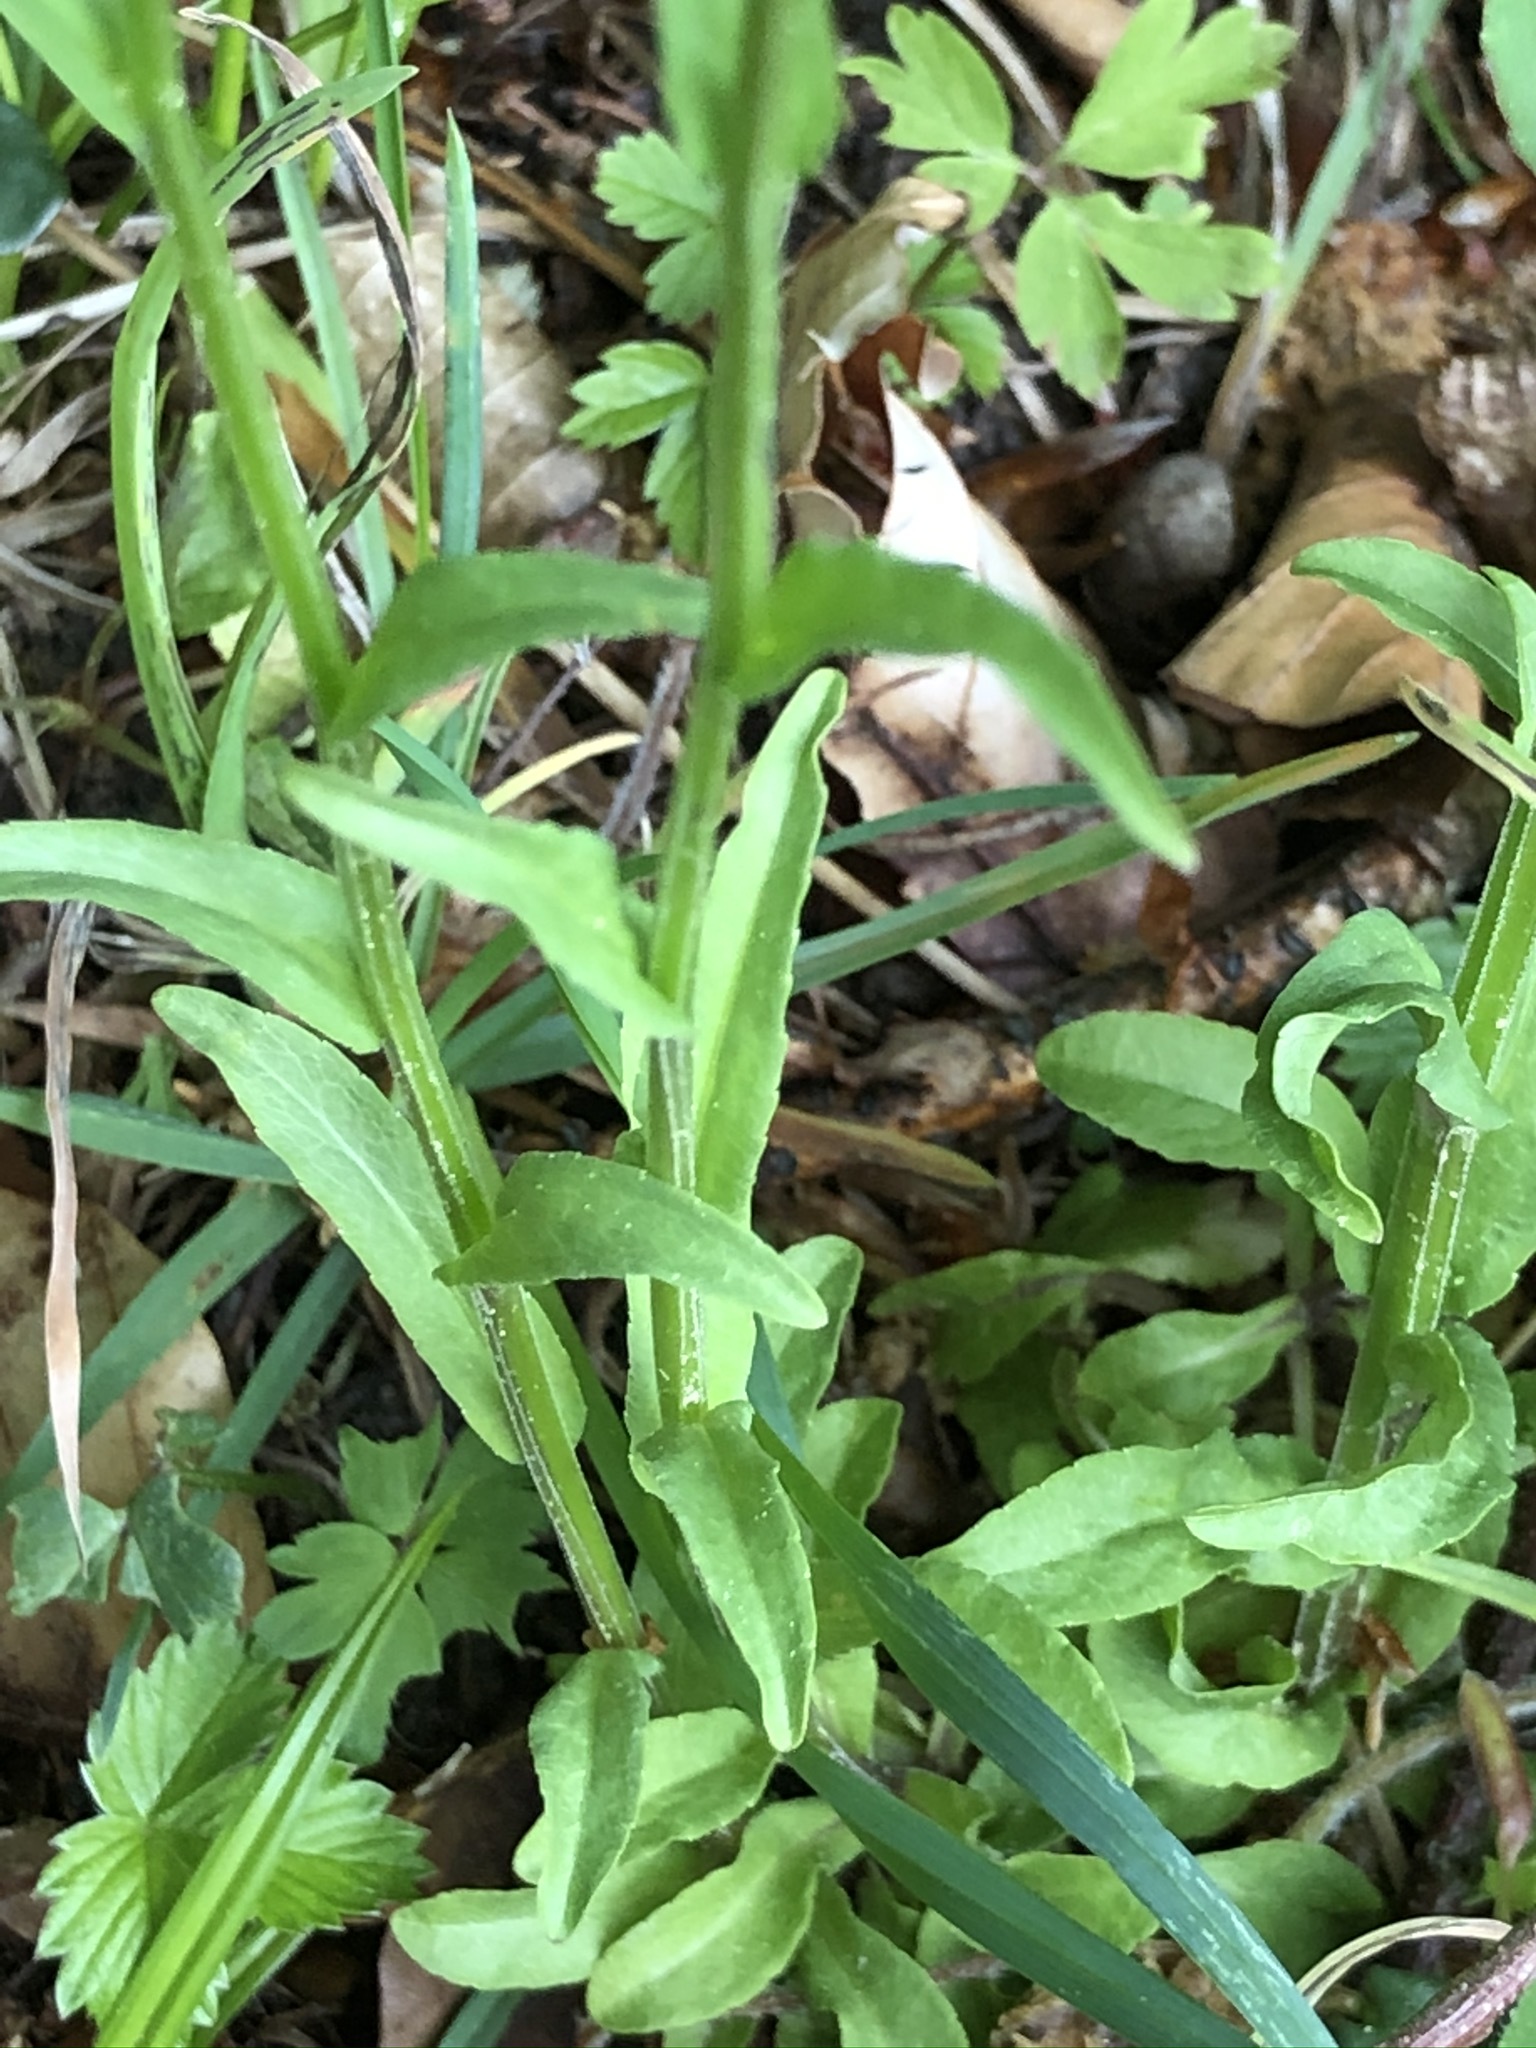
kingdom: Plantae
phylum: Tracheophyta
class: Magnoliopsida
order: Asterales
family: Campanulaceae
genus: Campanula
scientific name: Campanula patula
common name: Spreading bellflower
